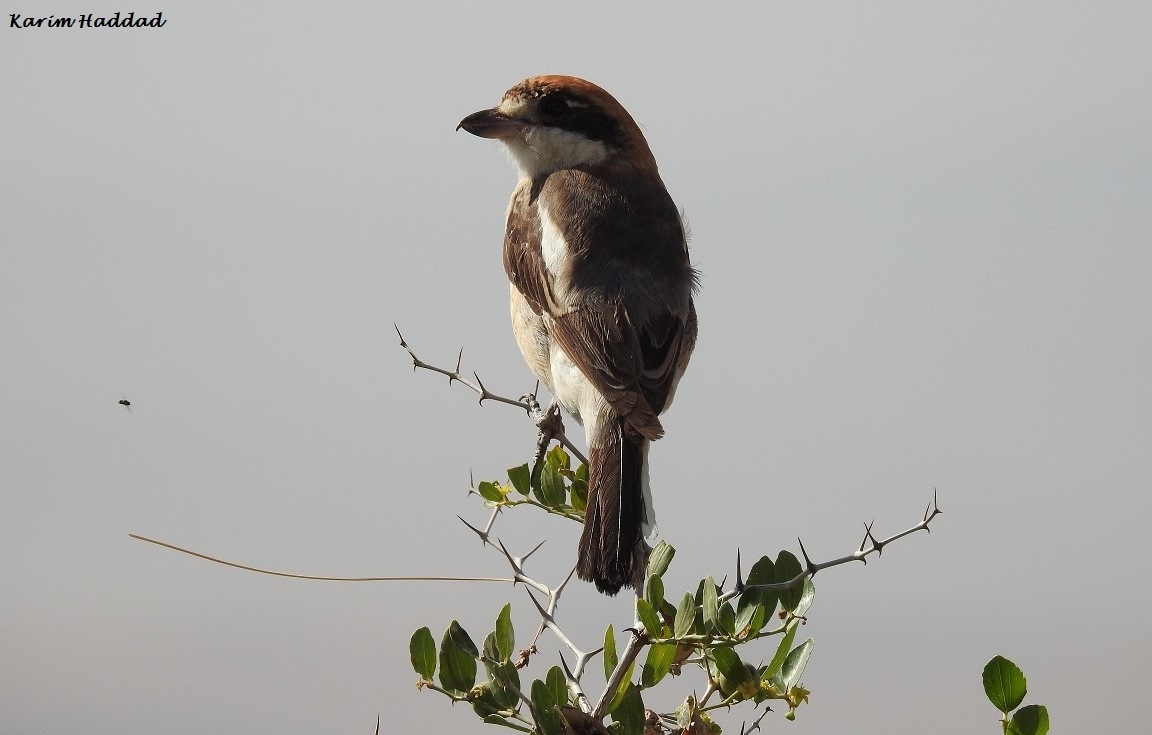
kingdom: Animalia
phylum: Chordata
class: Aves
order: Passeriformes
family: Laniidae
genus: Lanius
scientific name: Lanius senator
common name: Woodchat shrike
